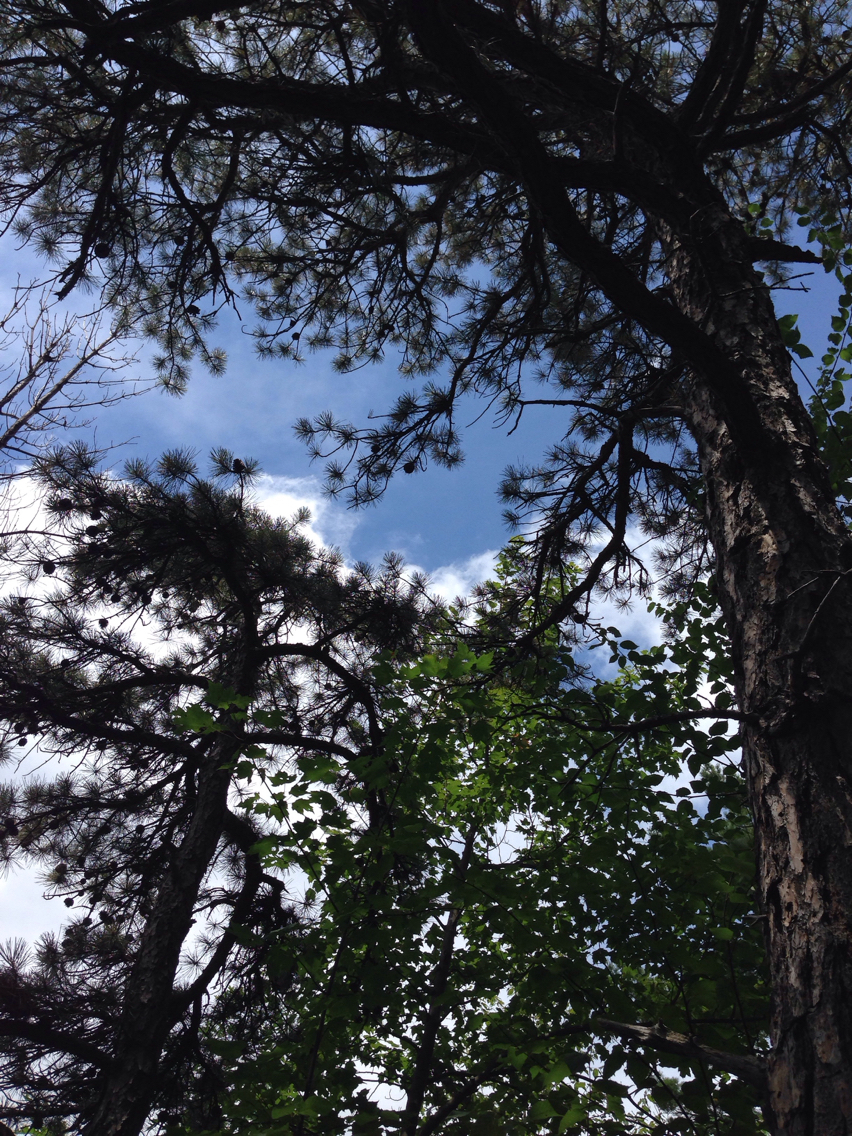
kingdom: Plantae
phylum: Tracheophyta
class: Pinopsida
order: Pinales
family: Pinaceae
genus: Pinus
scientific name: Pinus rigida
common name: Pitch pine
